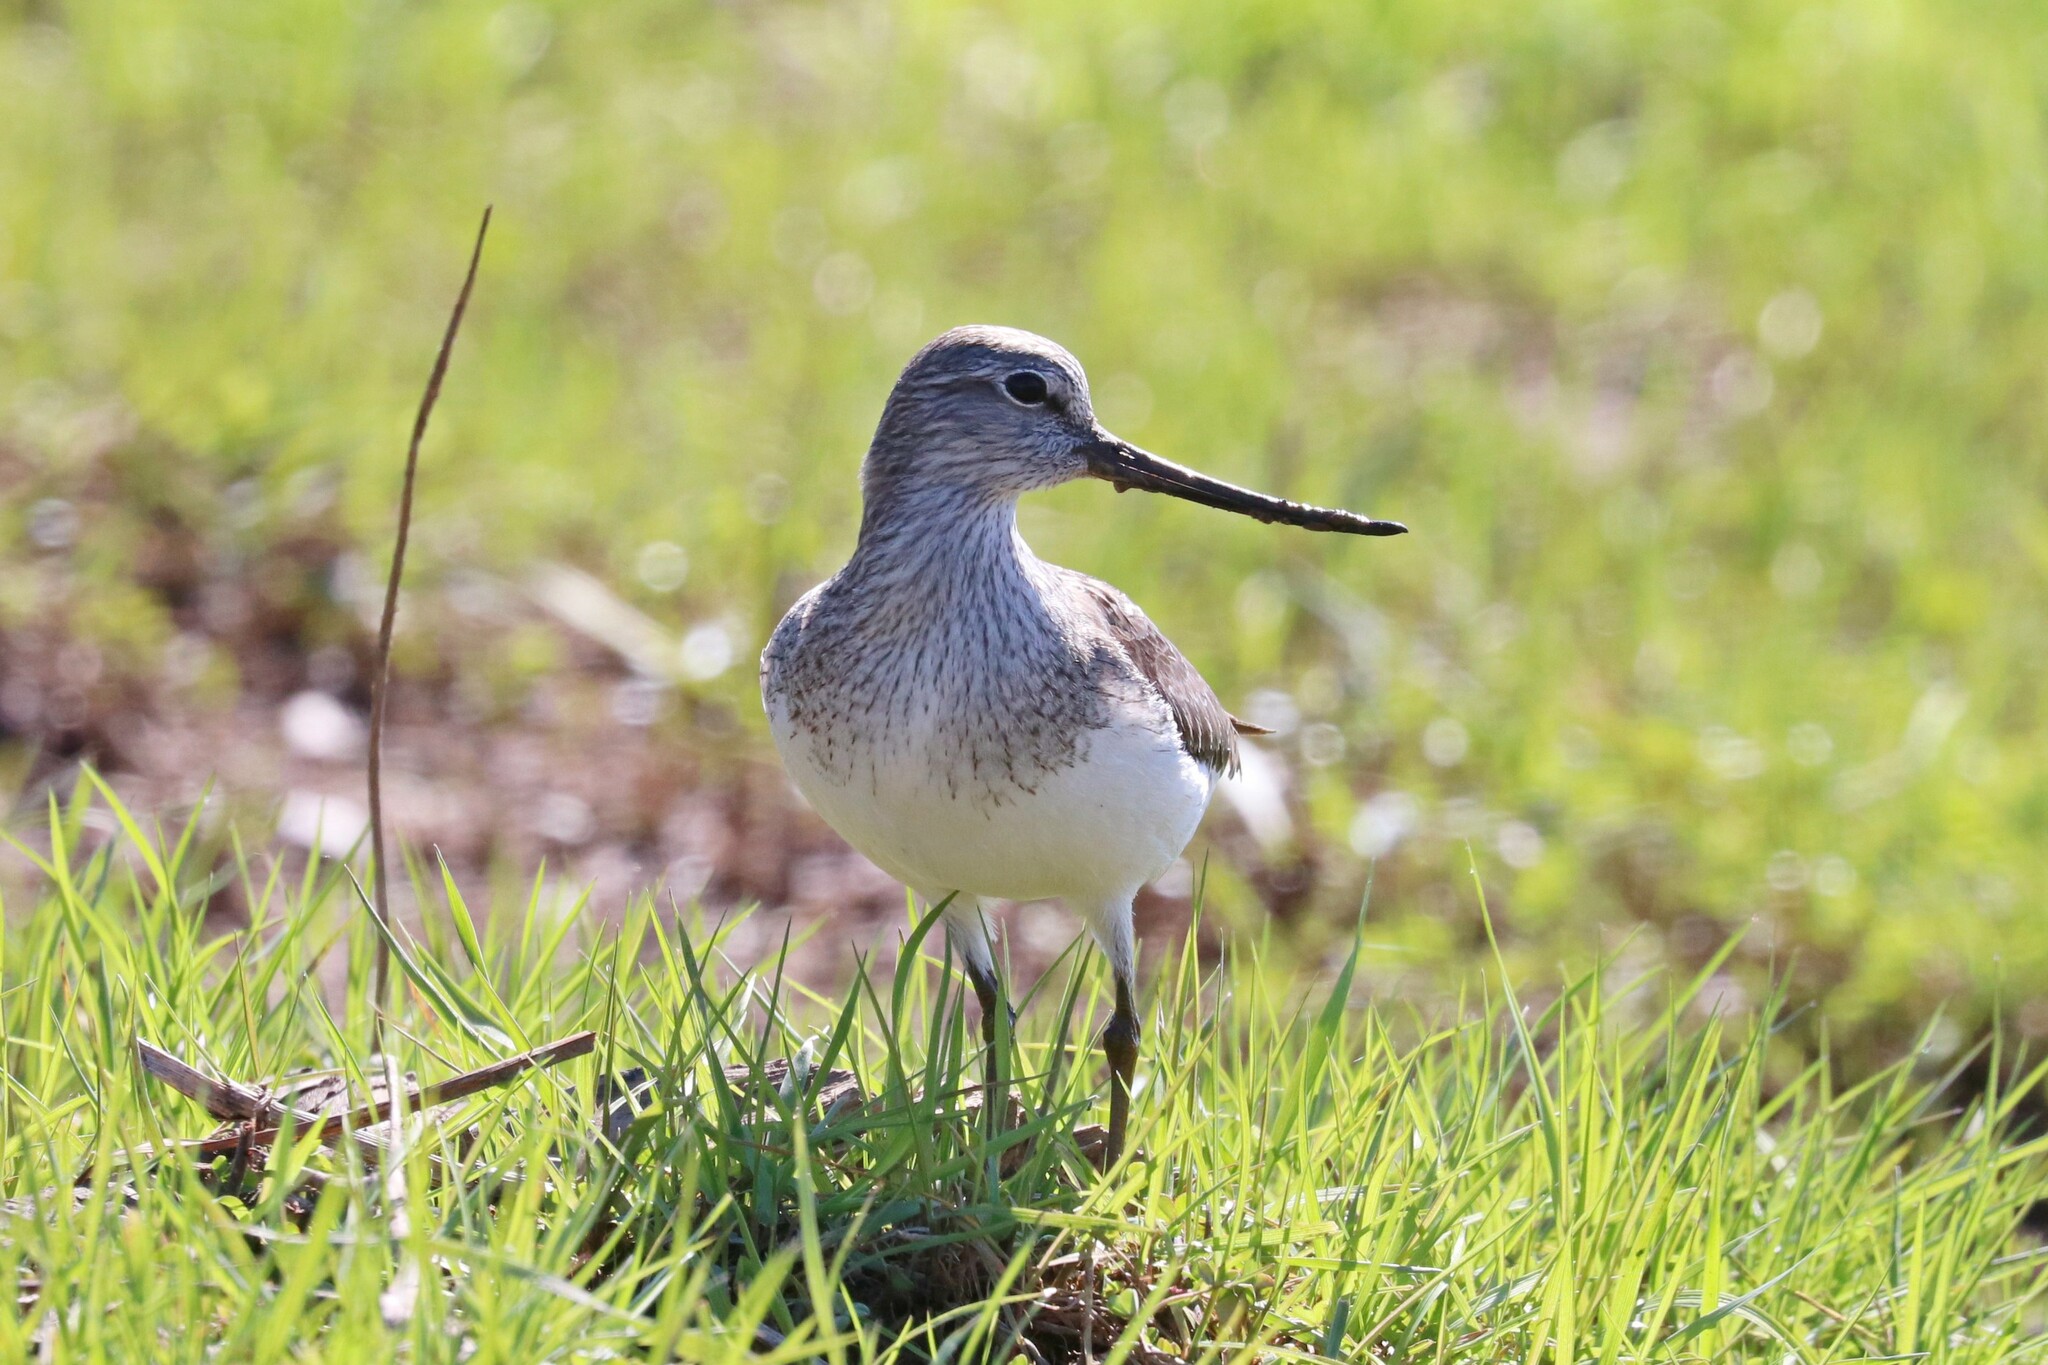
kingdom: Animalia
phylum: Chordata
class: Aves
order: Charadriiformes
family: Scolopacidae
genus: Xenus
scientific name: Xenus cinereus
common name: Terek sandpiper
